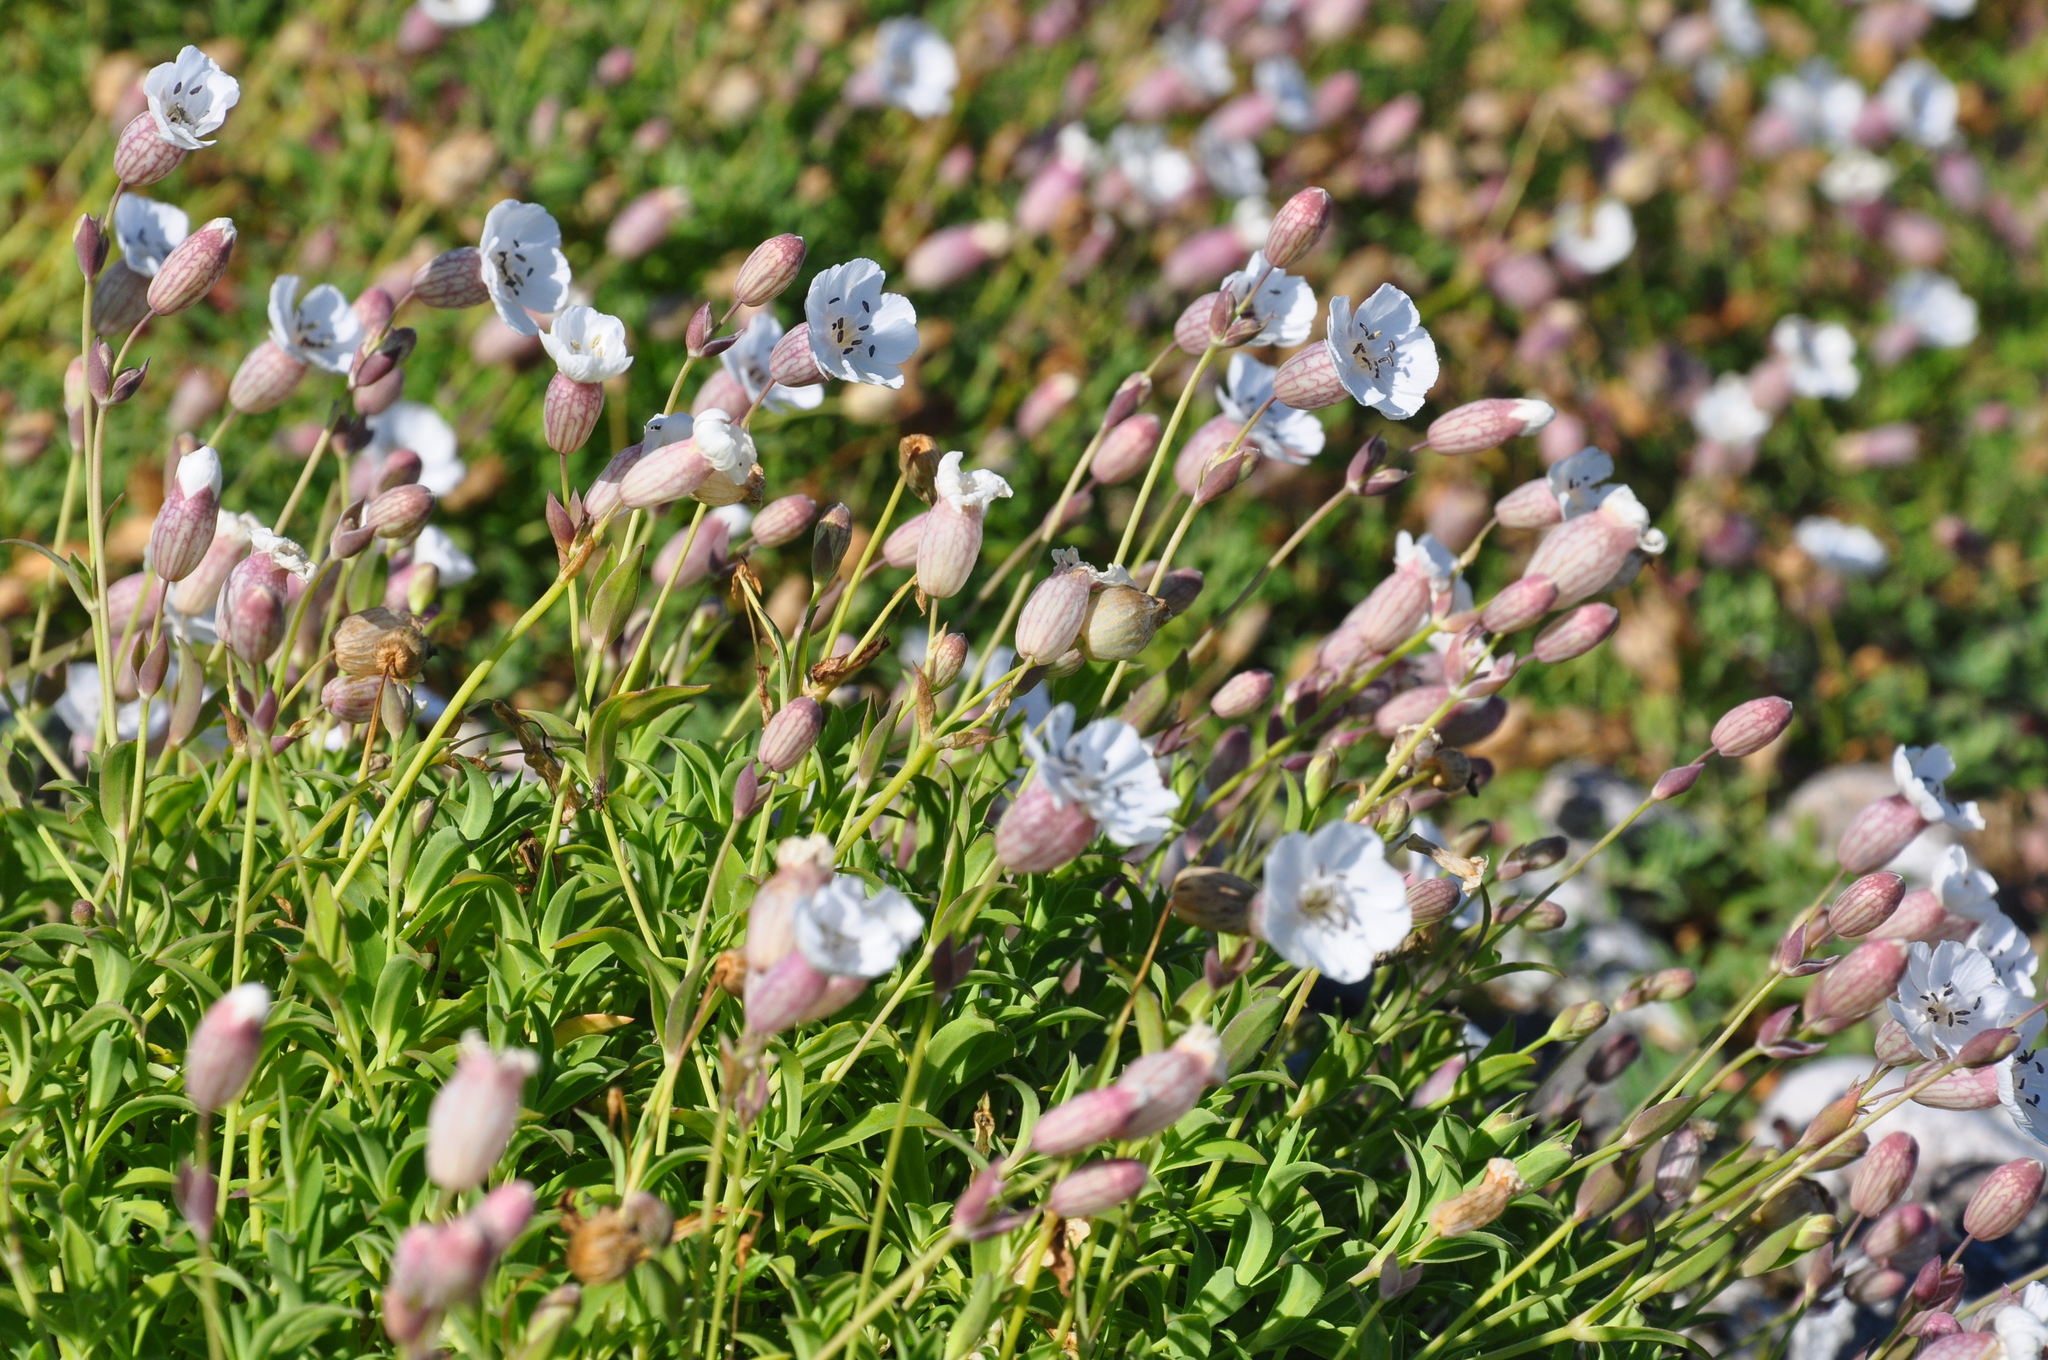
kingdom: Plantae
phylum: Tracheophyta
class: Magnoliopsida
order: Caryophyllales
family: Caryophyllaceae
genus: Silene
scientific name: Silene uniflora
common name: Sea campion
